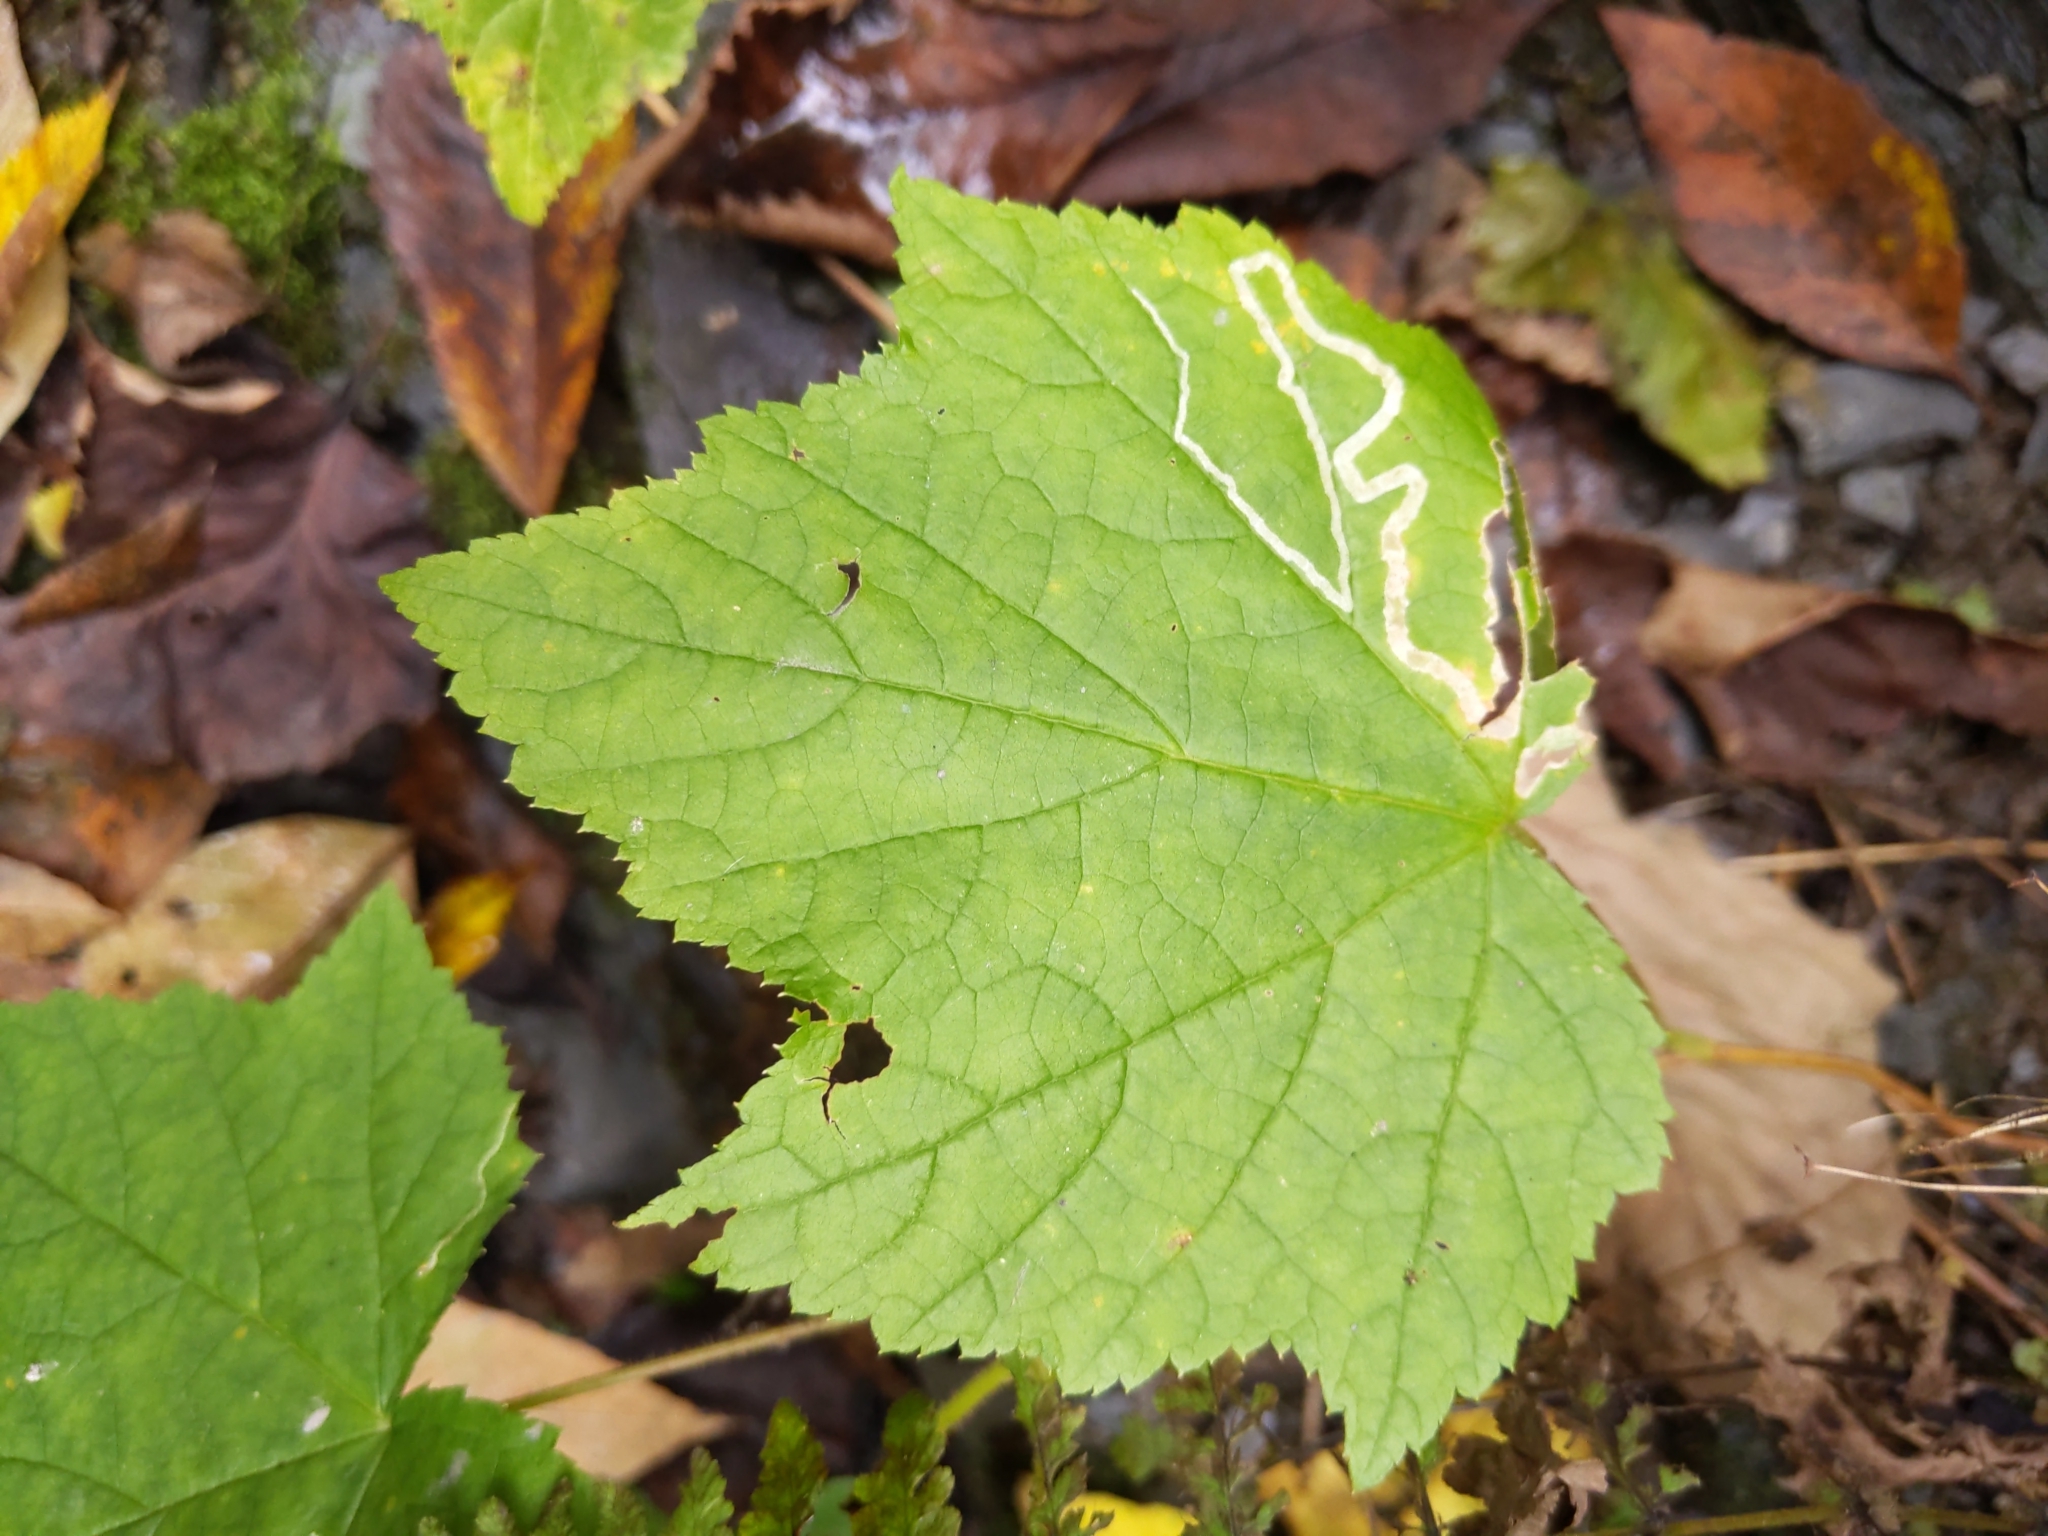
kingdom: Animalia
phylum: Arthropoda
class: Insecta
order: Diptera
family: Agromyzidae
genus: Agromyza
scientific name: Agromyza vockerothi
